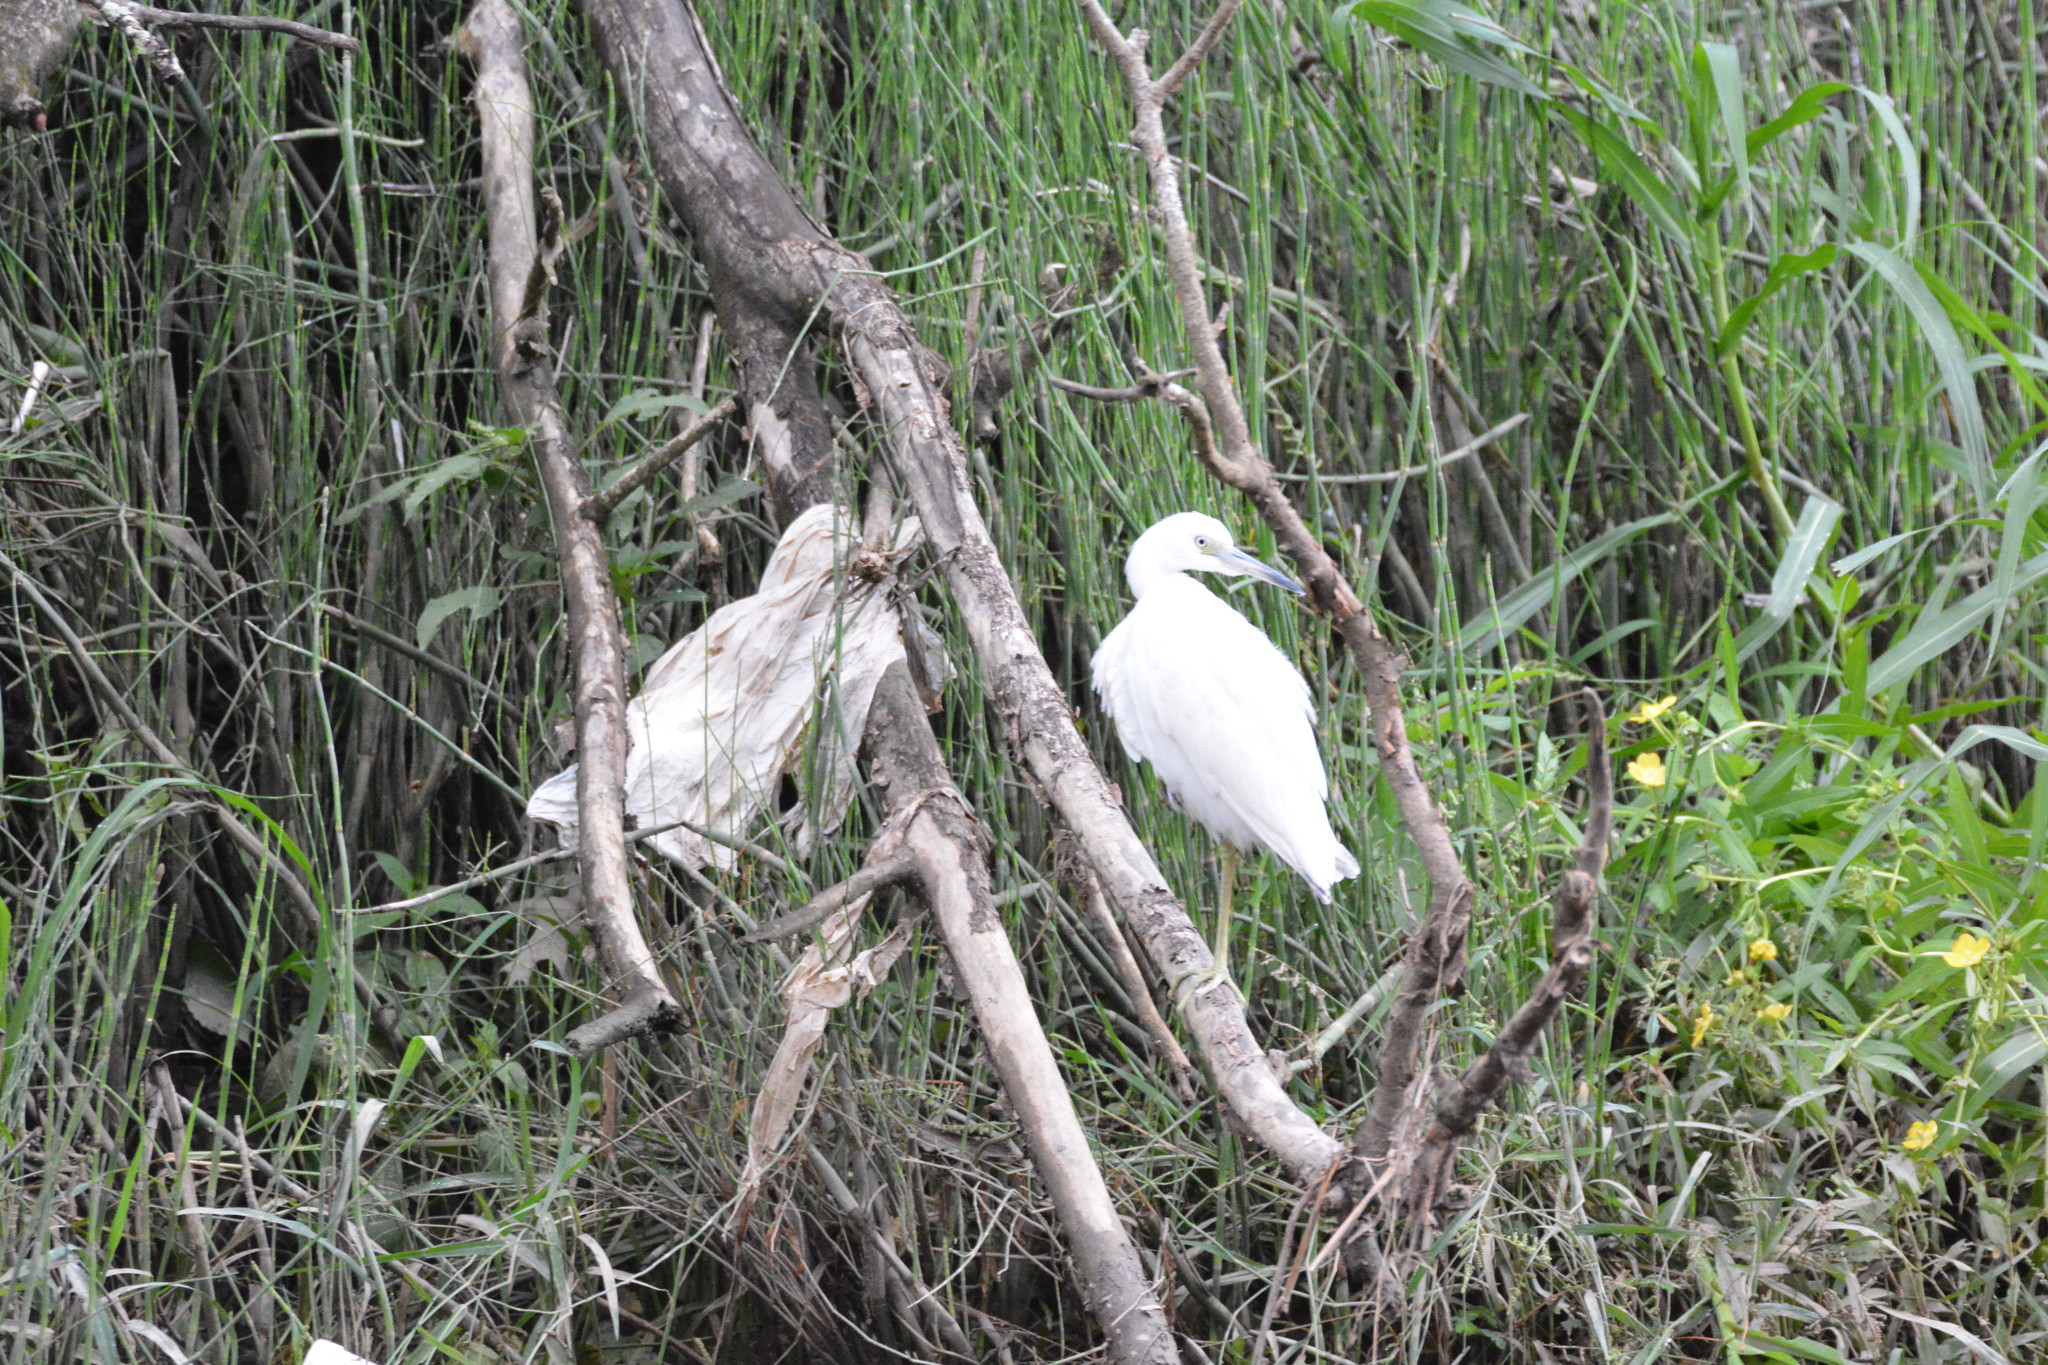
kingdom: Animalia
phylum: Chordata
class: Aves
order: Pelecaniformes
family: Ardeidae
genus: Egretta
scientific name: Egretta caerulea
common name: Little blue heron
